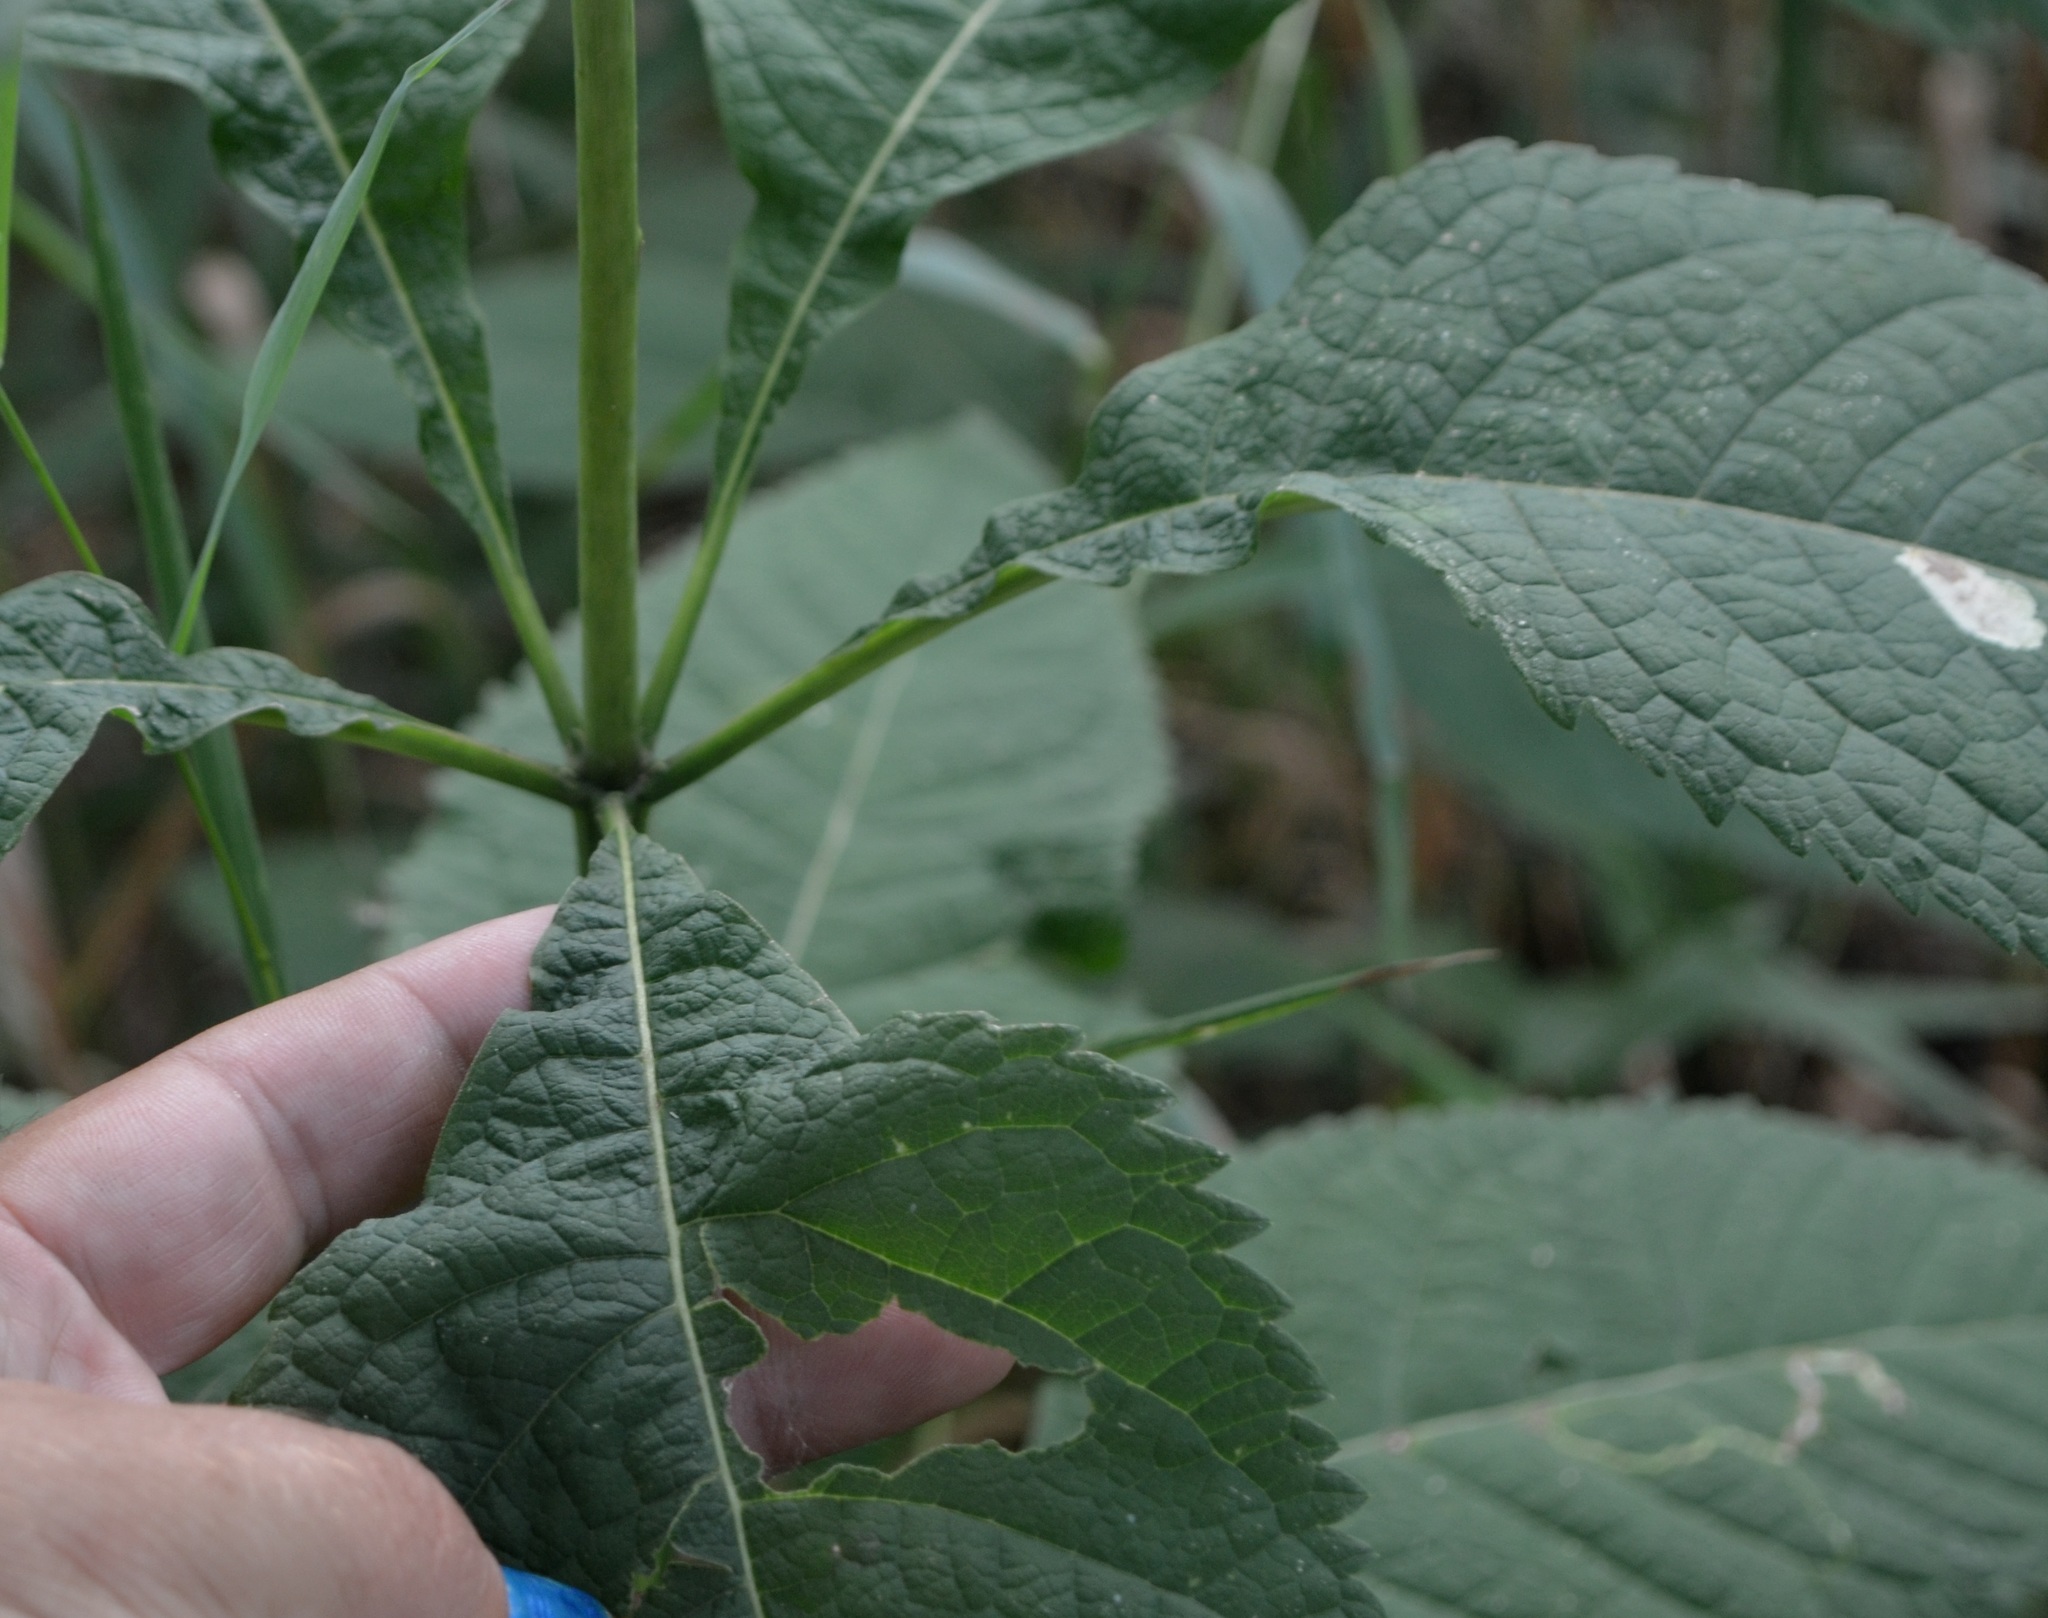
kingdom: Plantae
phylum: Tracheophyta
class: Magnoliopsida
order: Asterales
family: Asteraceae
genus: Eutrochium
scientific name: Eutrochium purpureum
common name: Gravelroot
